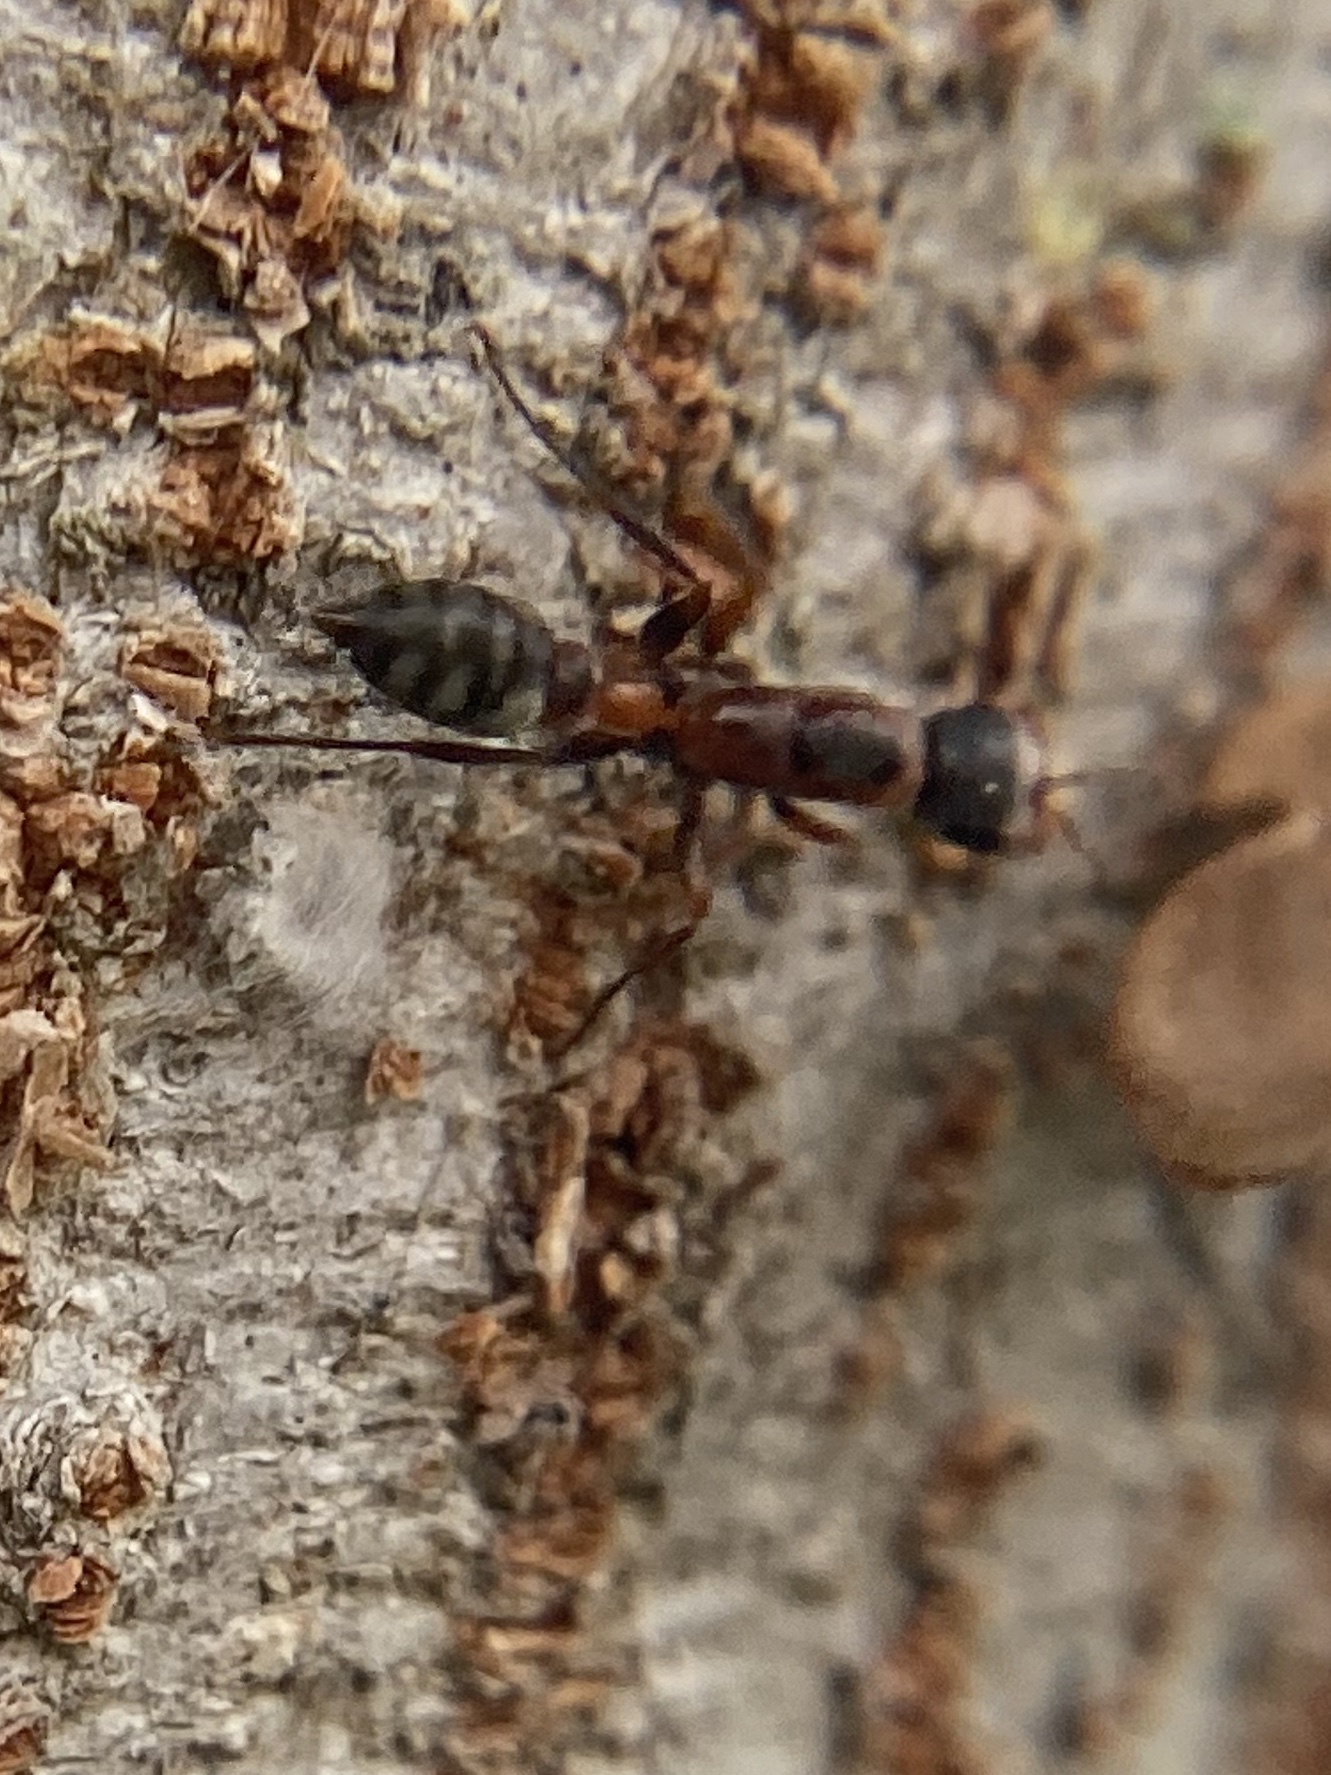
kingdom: Animalia
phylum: Arthropoda
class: Insecta
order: Hymenoptera
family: Formicidae
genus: Pseudomyrmex
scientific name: Pseudomyrmex gracilis
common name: Graceful twig ant
